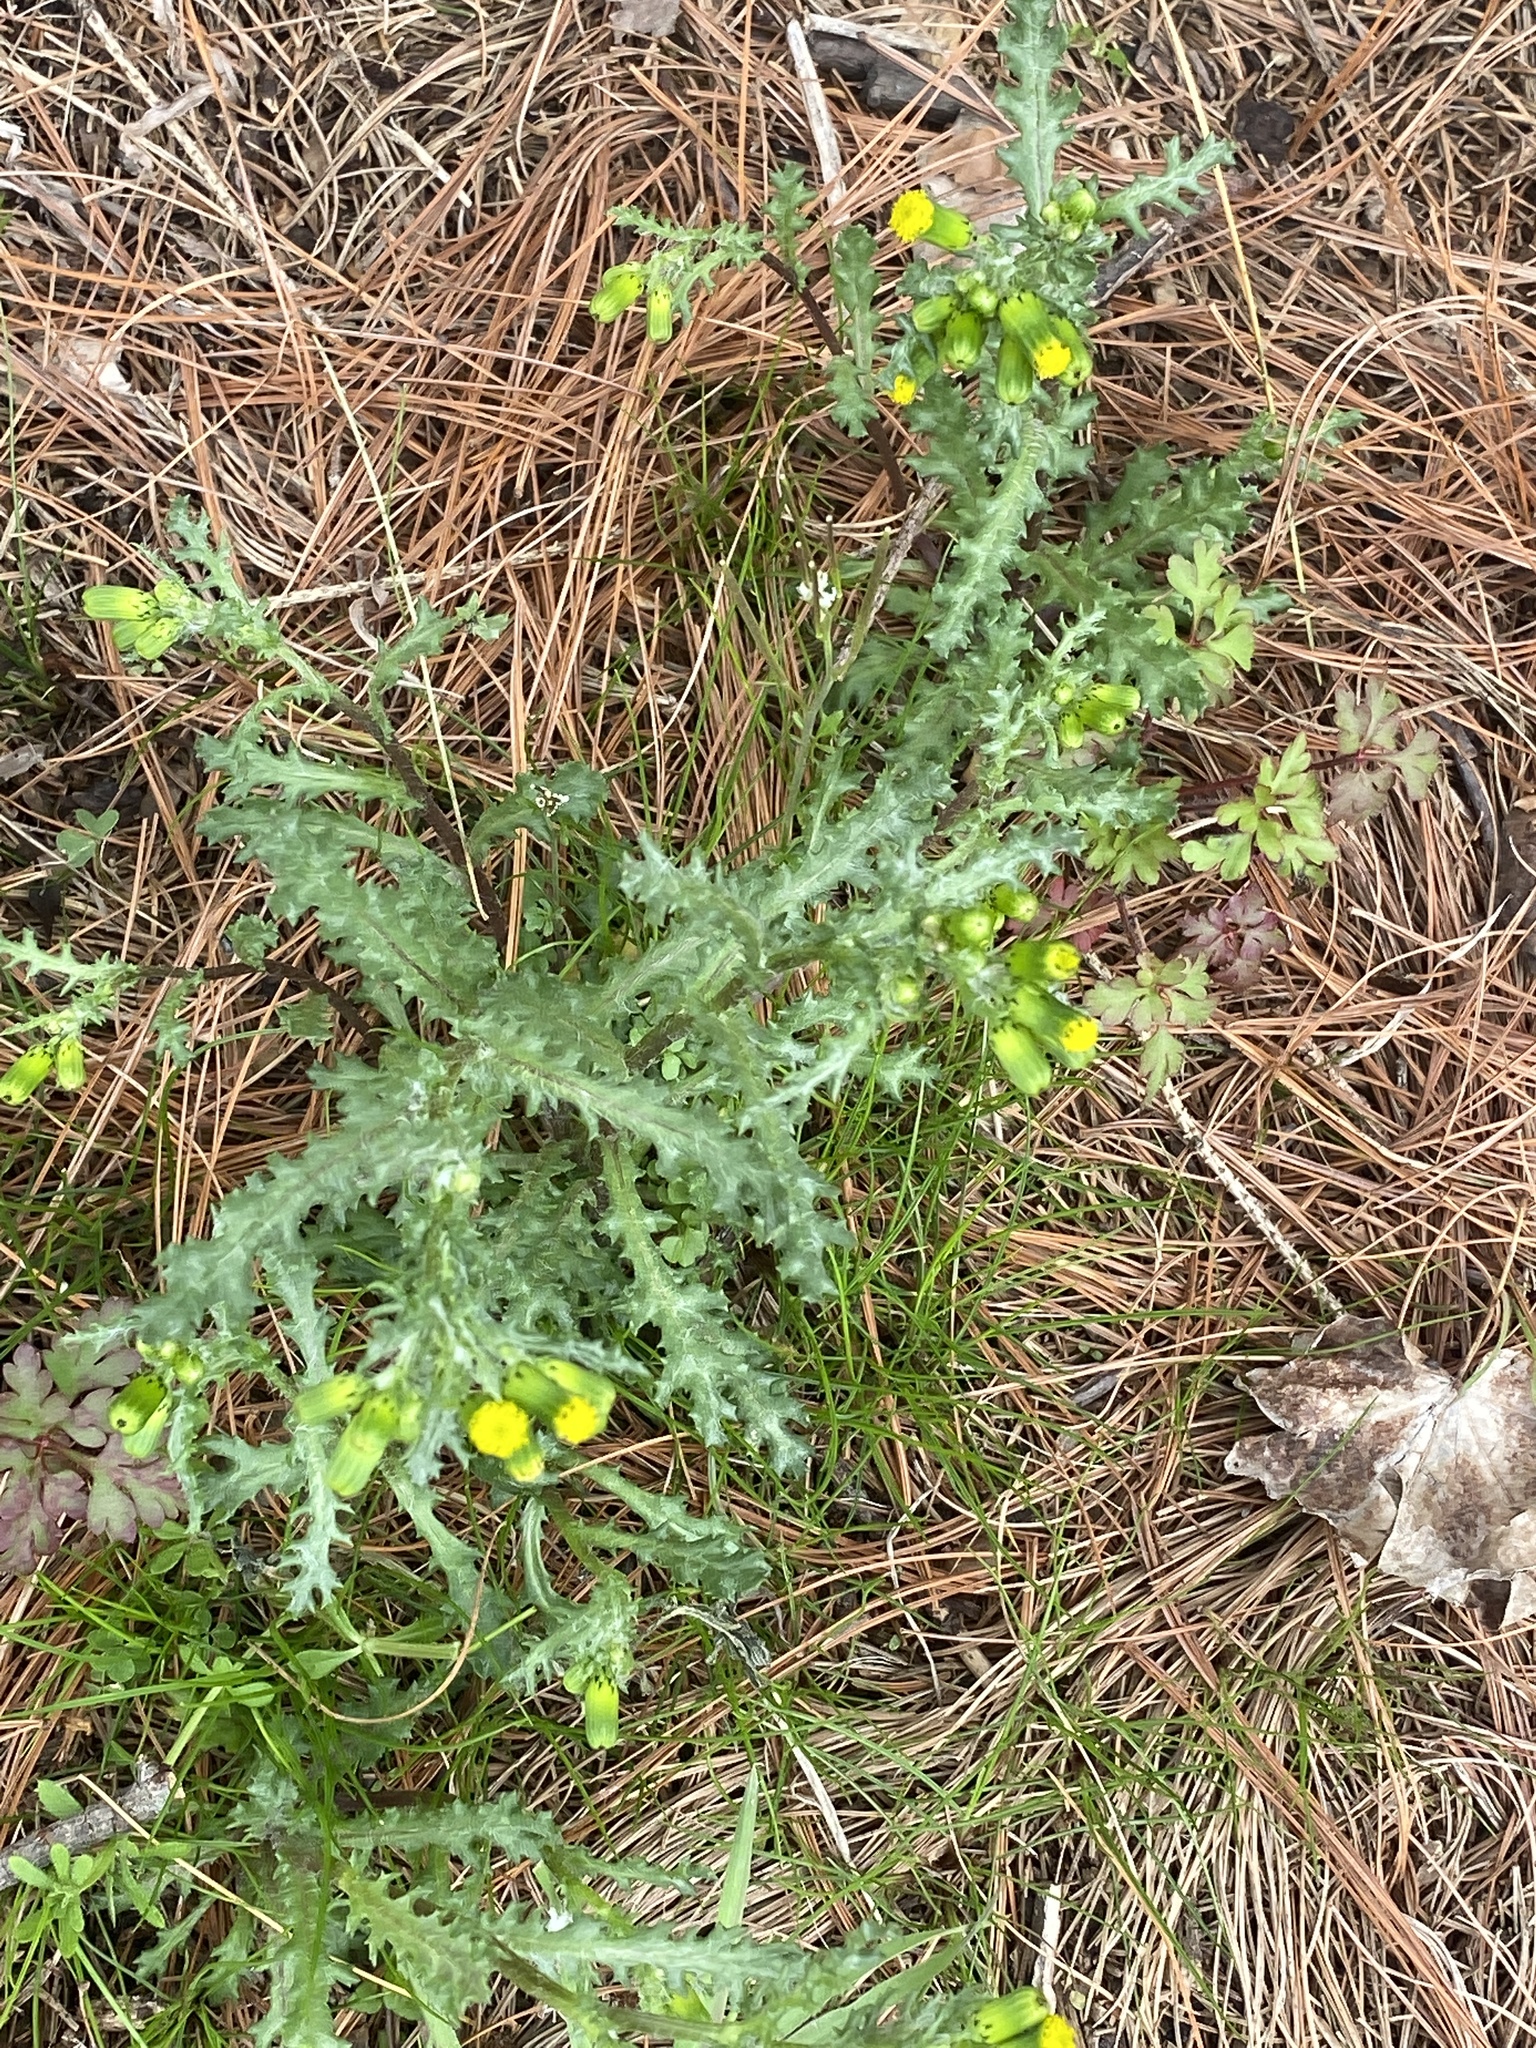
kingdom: Plantae
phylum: Tracheophyta
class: Magnoliopsida
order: Asterales
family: Asteraceae
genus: Senecio
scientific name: Senecio vulgaris
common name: Old-man-in-the-spring
